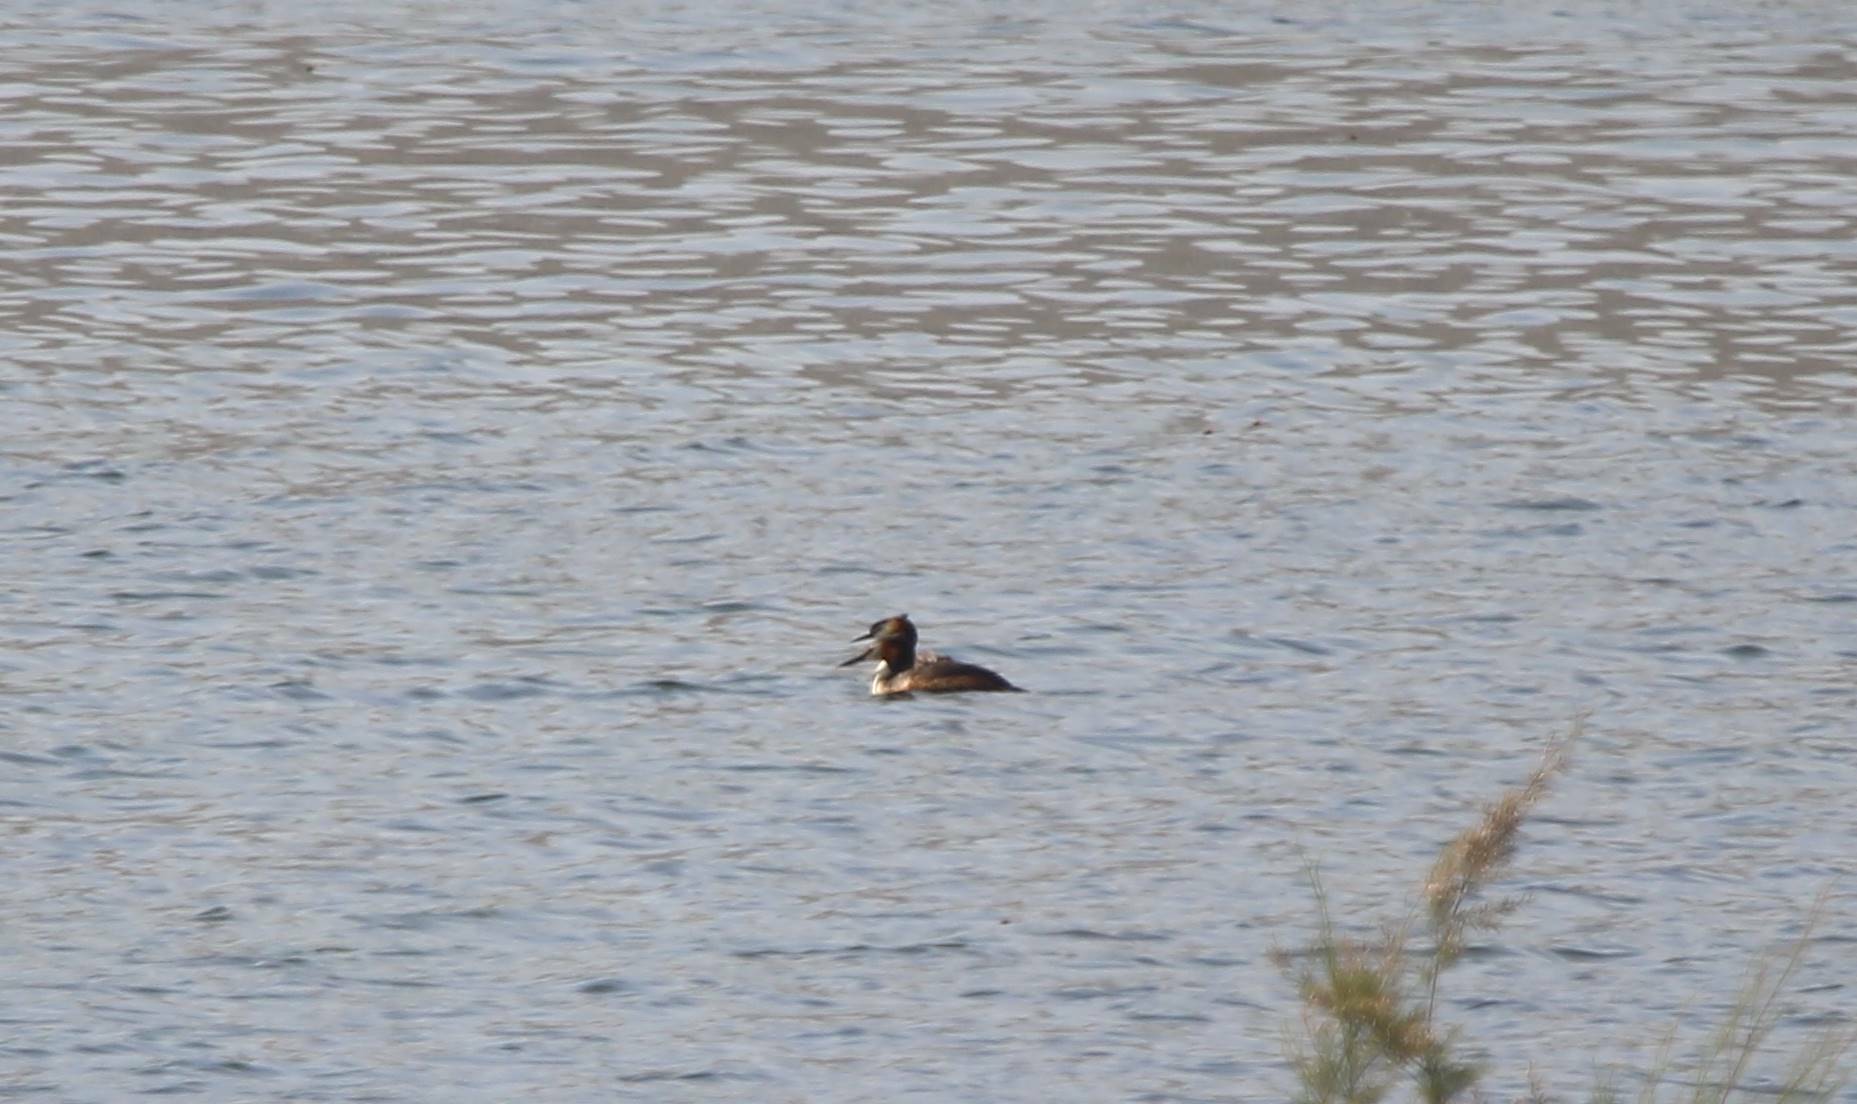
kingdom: Animalia
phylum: Chordata
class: Aves
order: Podicipediformes
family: Podicipedidae
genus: Podiceps
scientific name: Podiceps cristatus
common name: Great crested grebe
